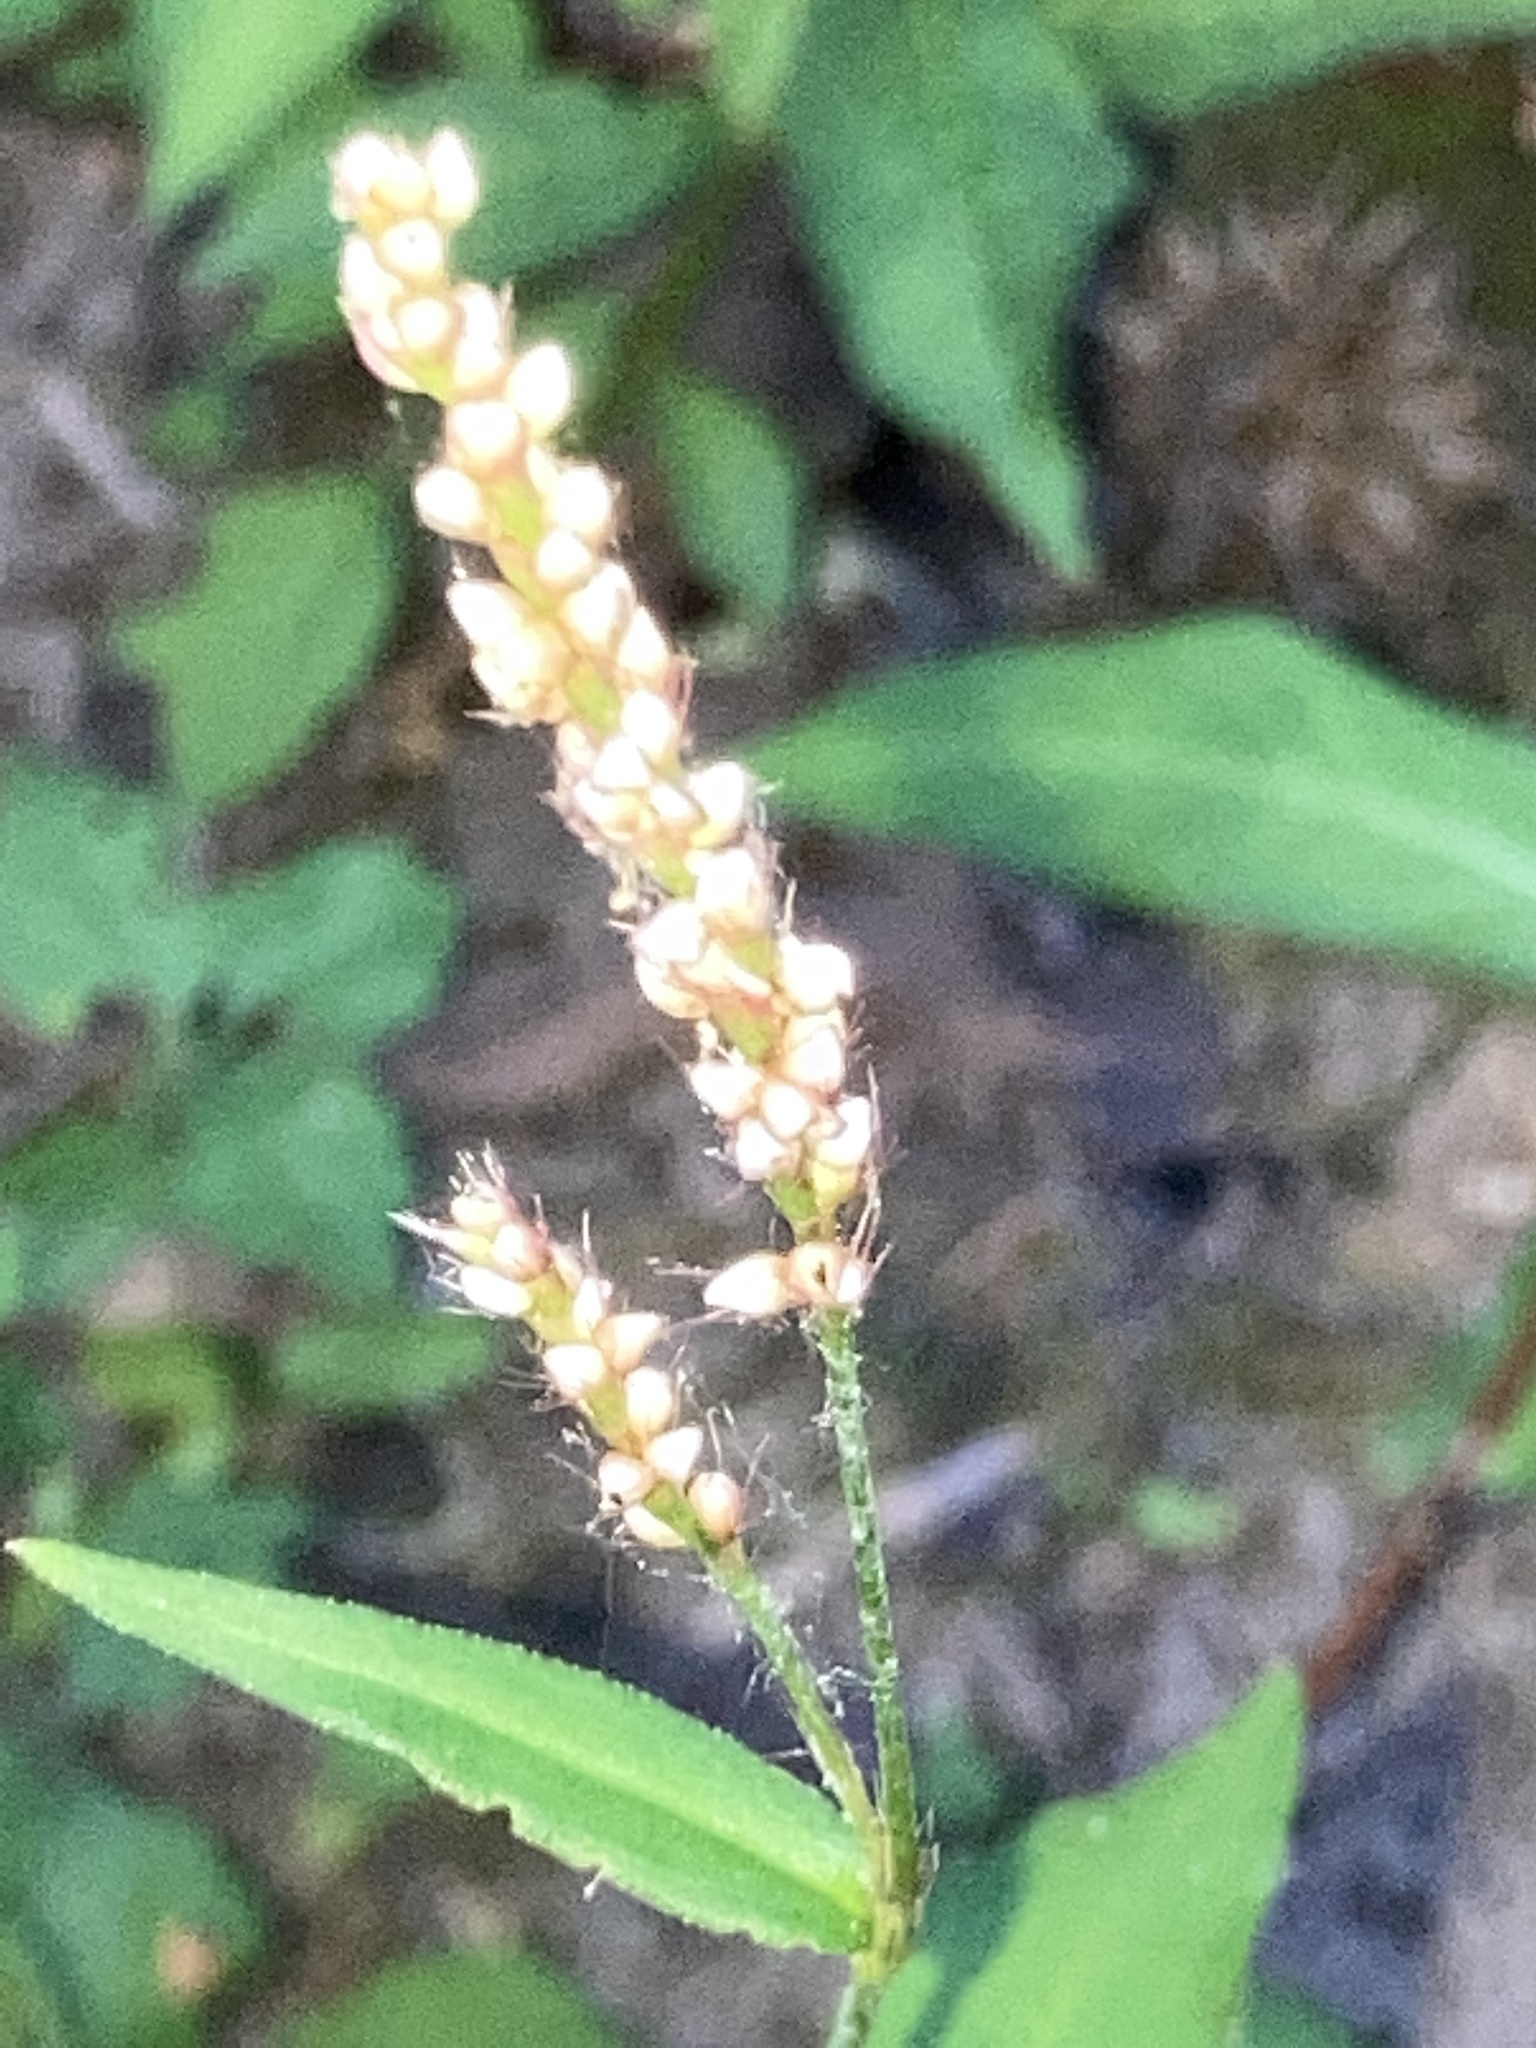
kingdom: Plantae
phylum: Tracheophyta
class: Magnoliopsida
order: Caryophyllales
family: Polygonaceae
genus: Persicaria
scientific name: Persicaria longiseta
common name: Bristly lady's-thumb
